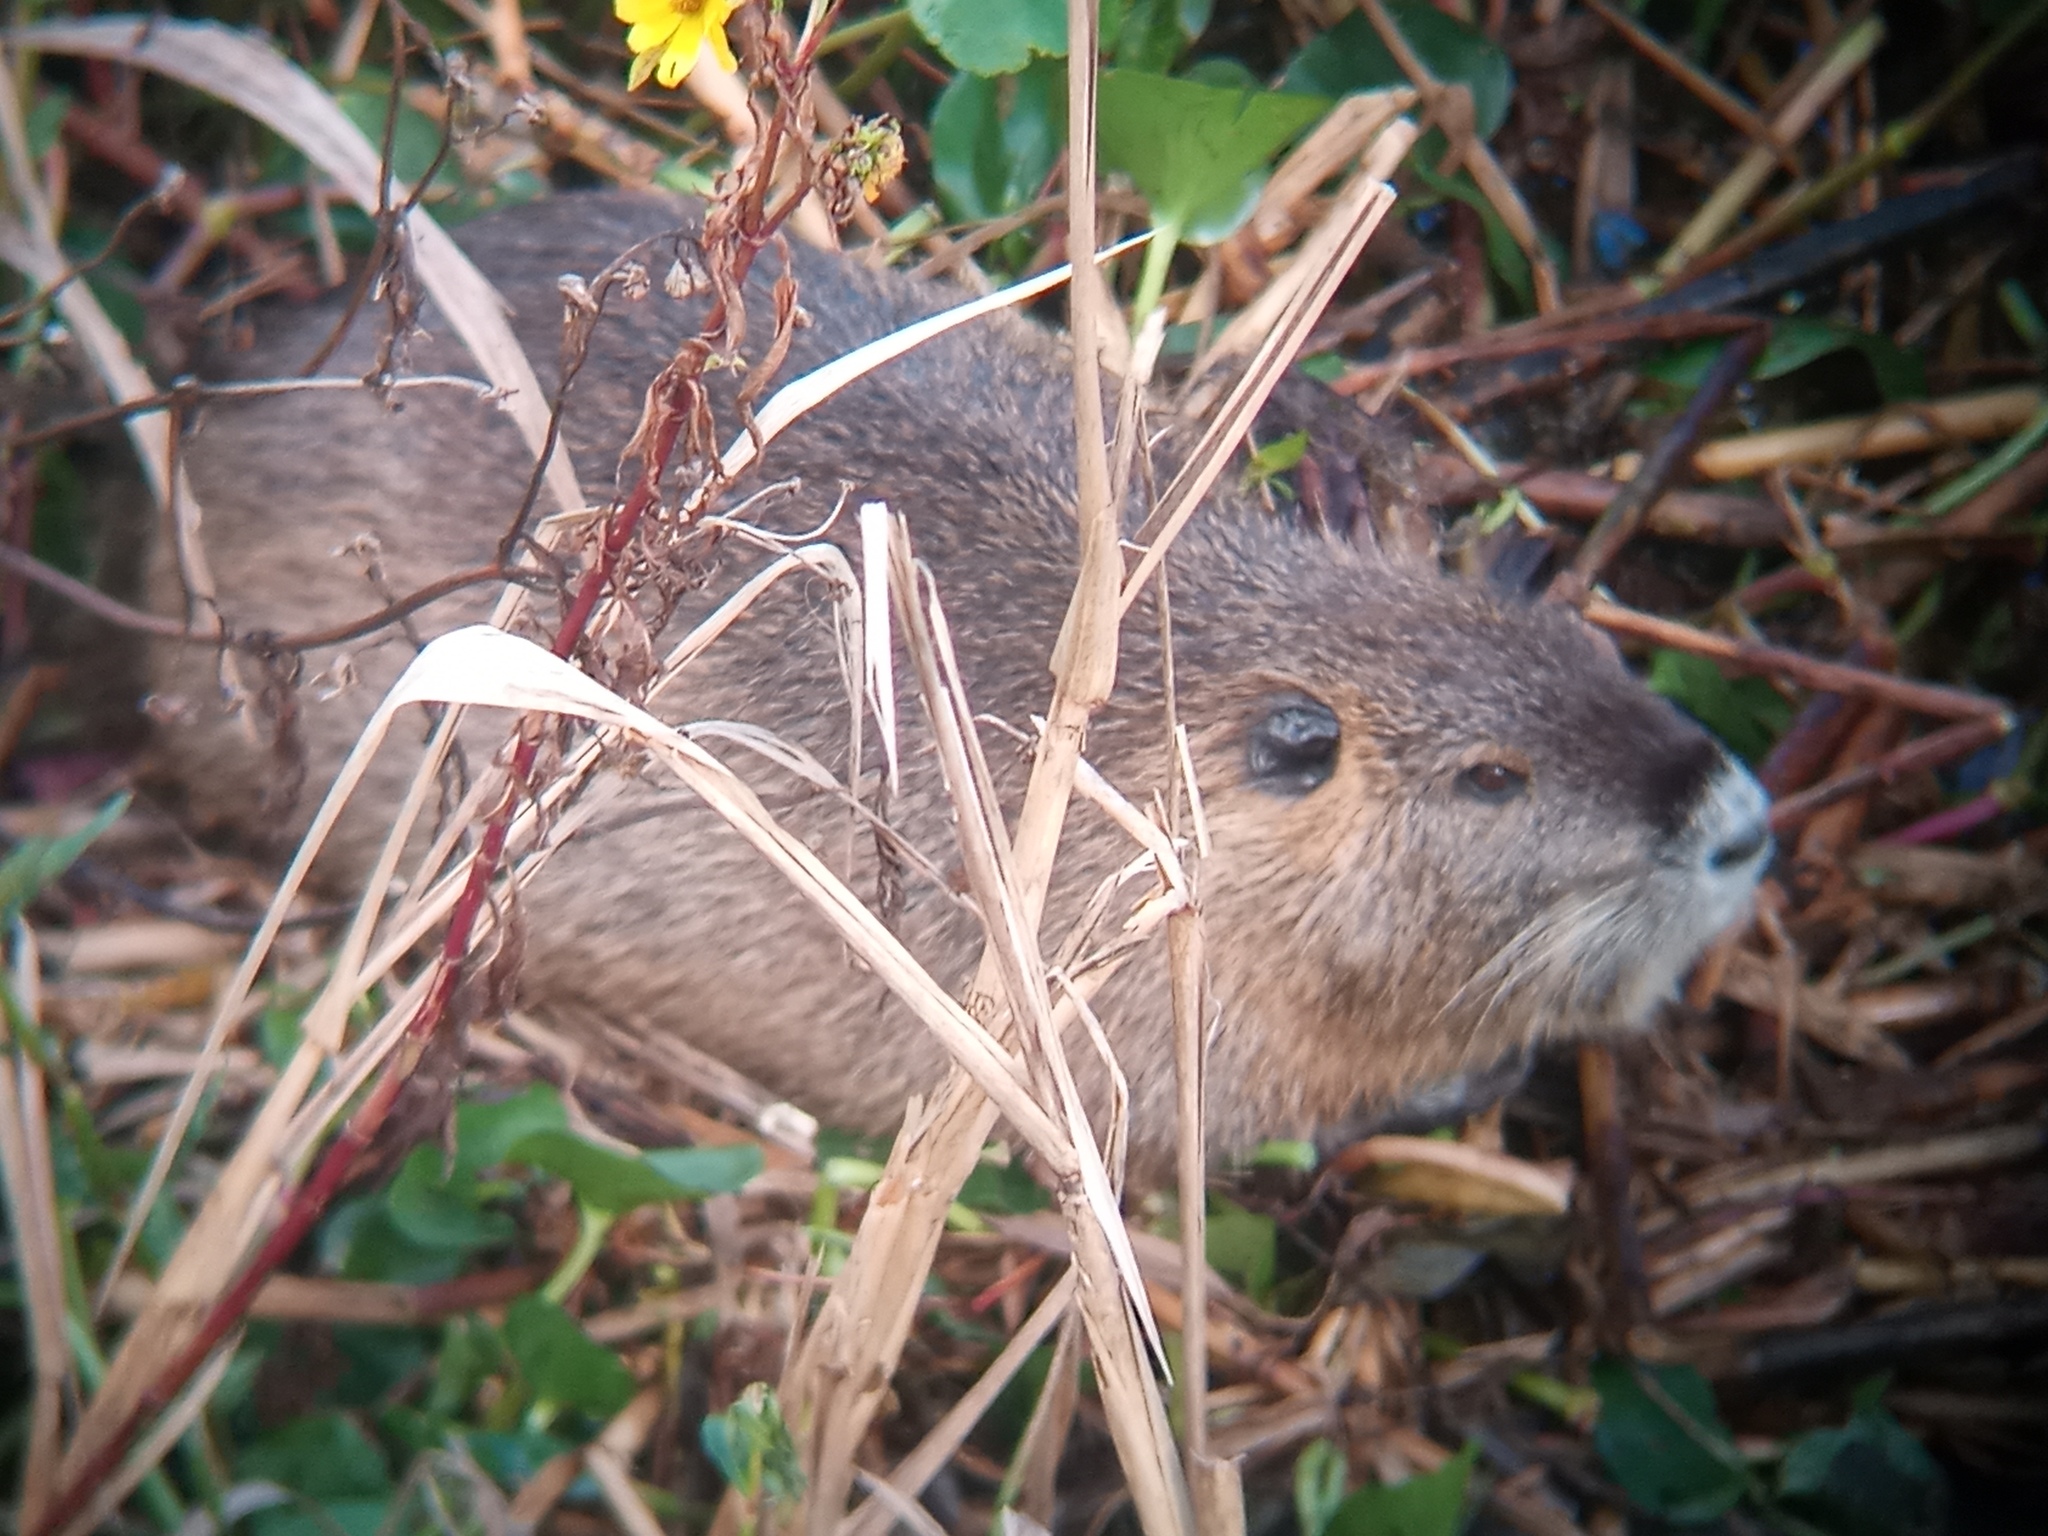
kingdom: Animalia
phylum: Chordata
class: Mammalia
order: Rodentia
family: Myocastoridae
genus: Myocastor
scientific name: Myocastor coypus
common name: Coypu
